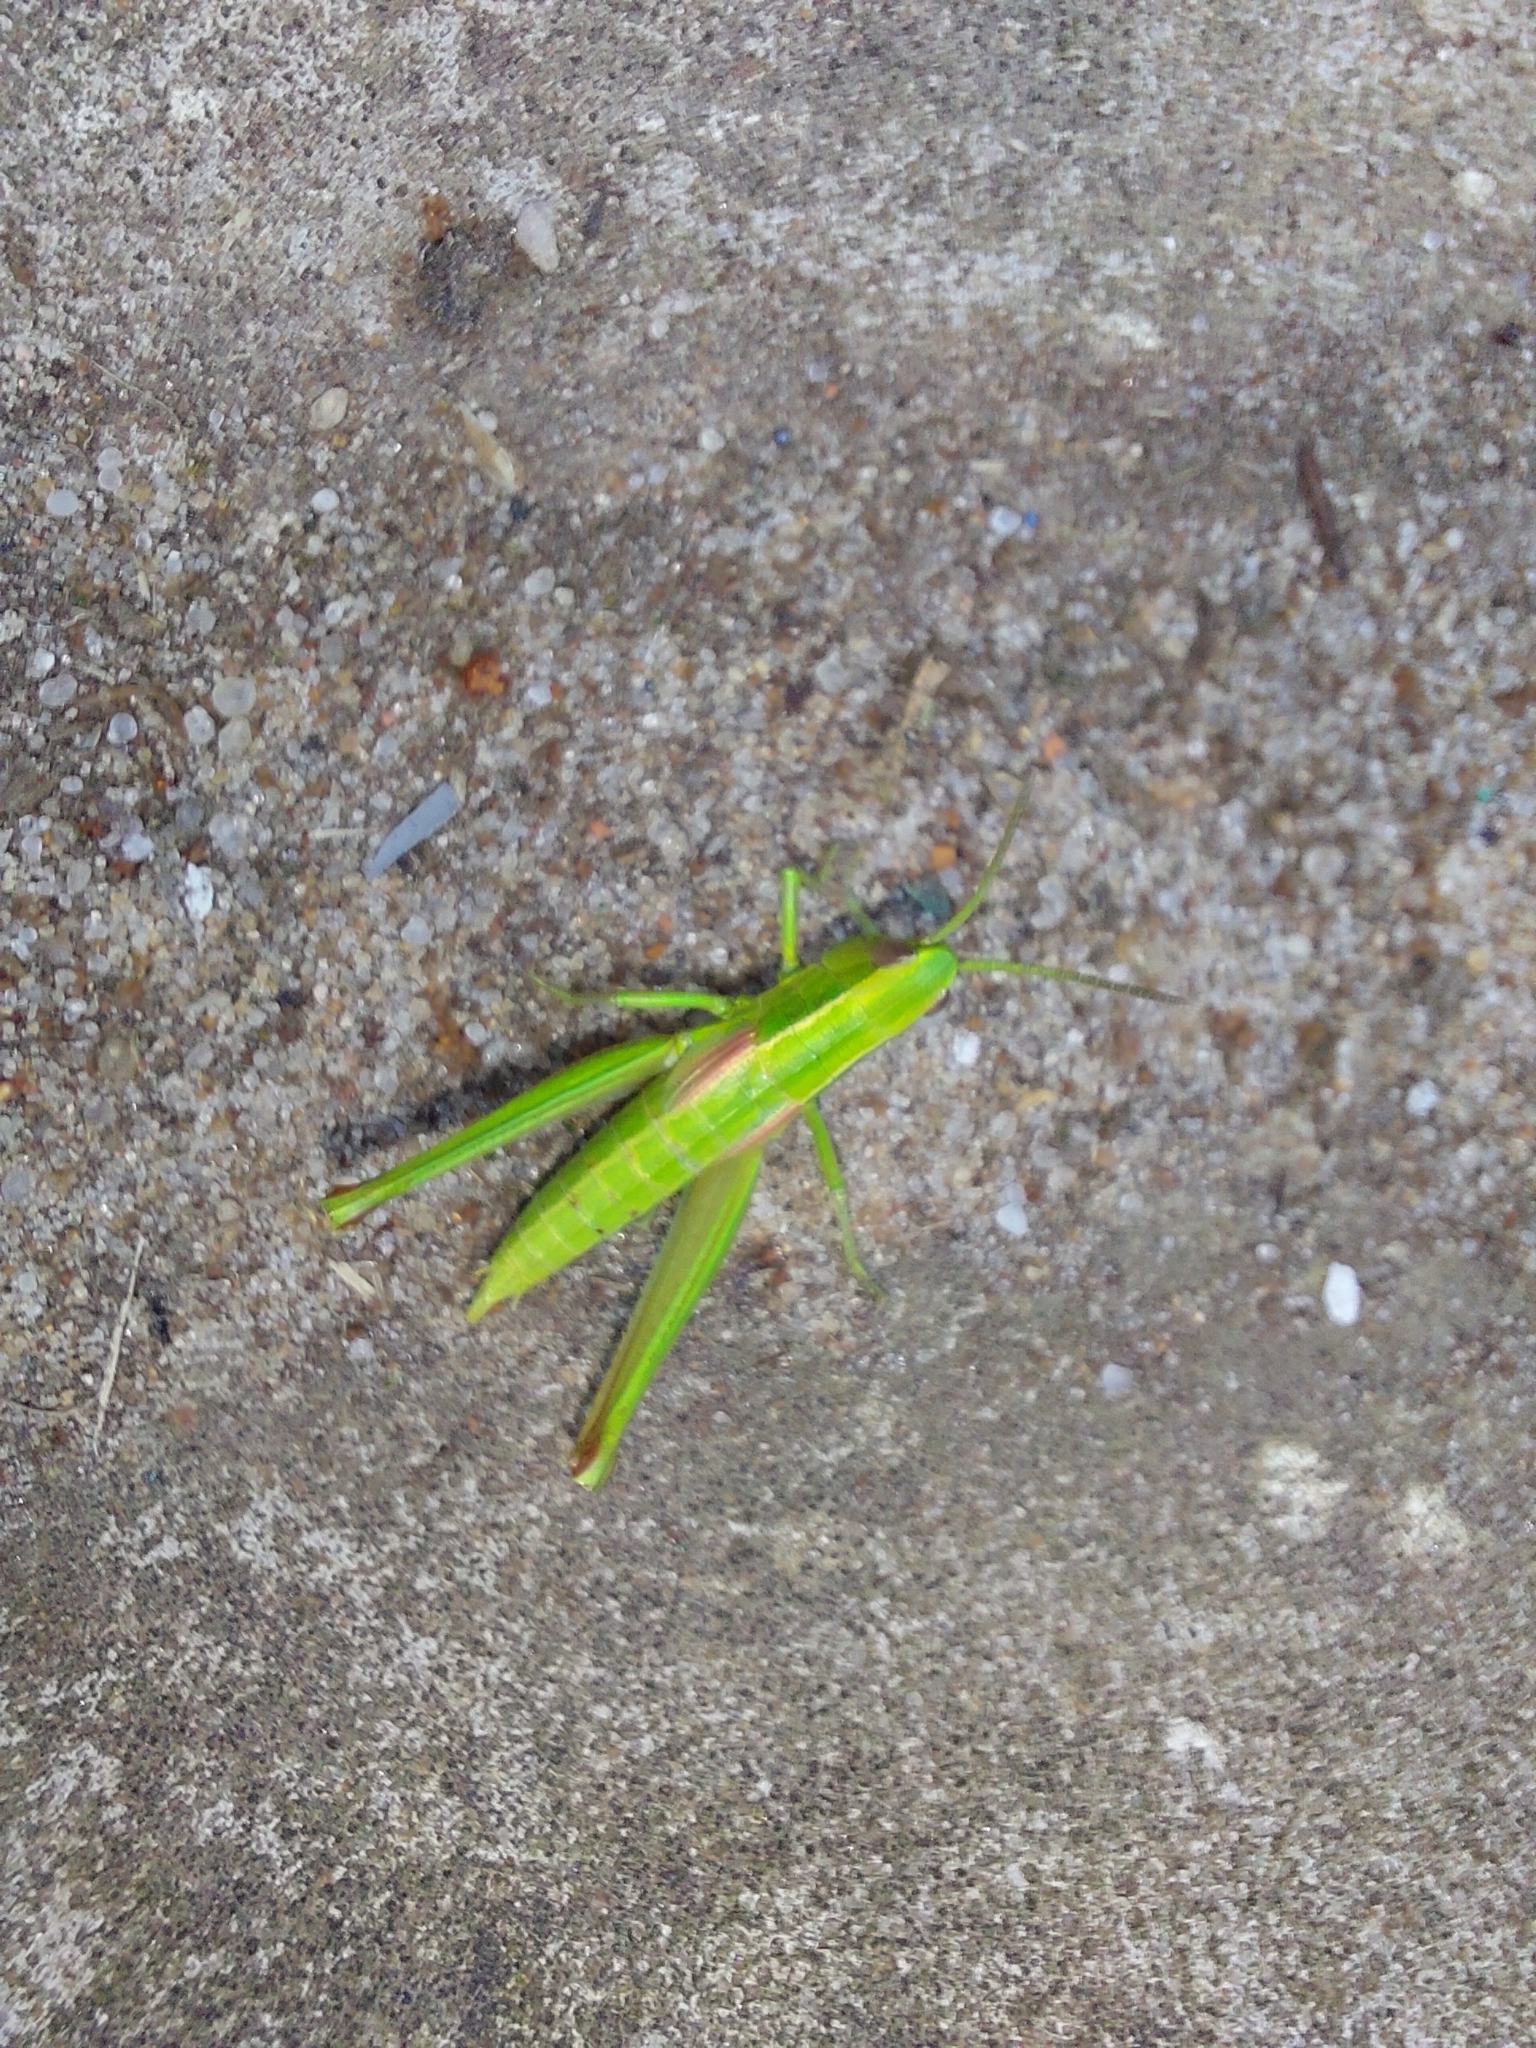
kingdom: Animalia
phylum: Arthropoda
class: Insecta
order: Orthoptera
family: Acrididae
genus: Euthystira
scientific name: Euthystira brachyptera
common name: Small gold grasshopper
